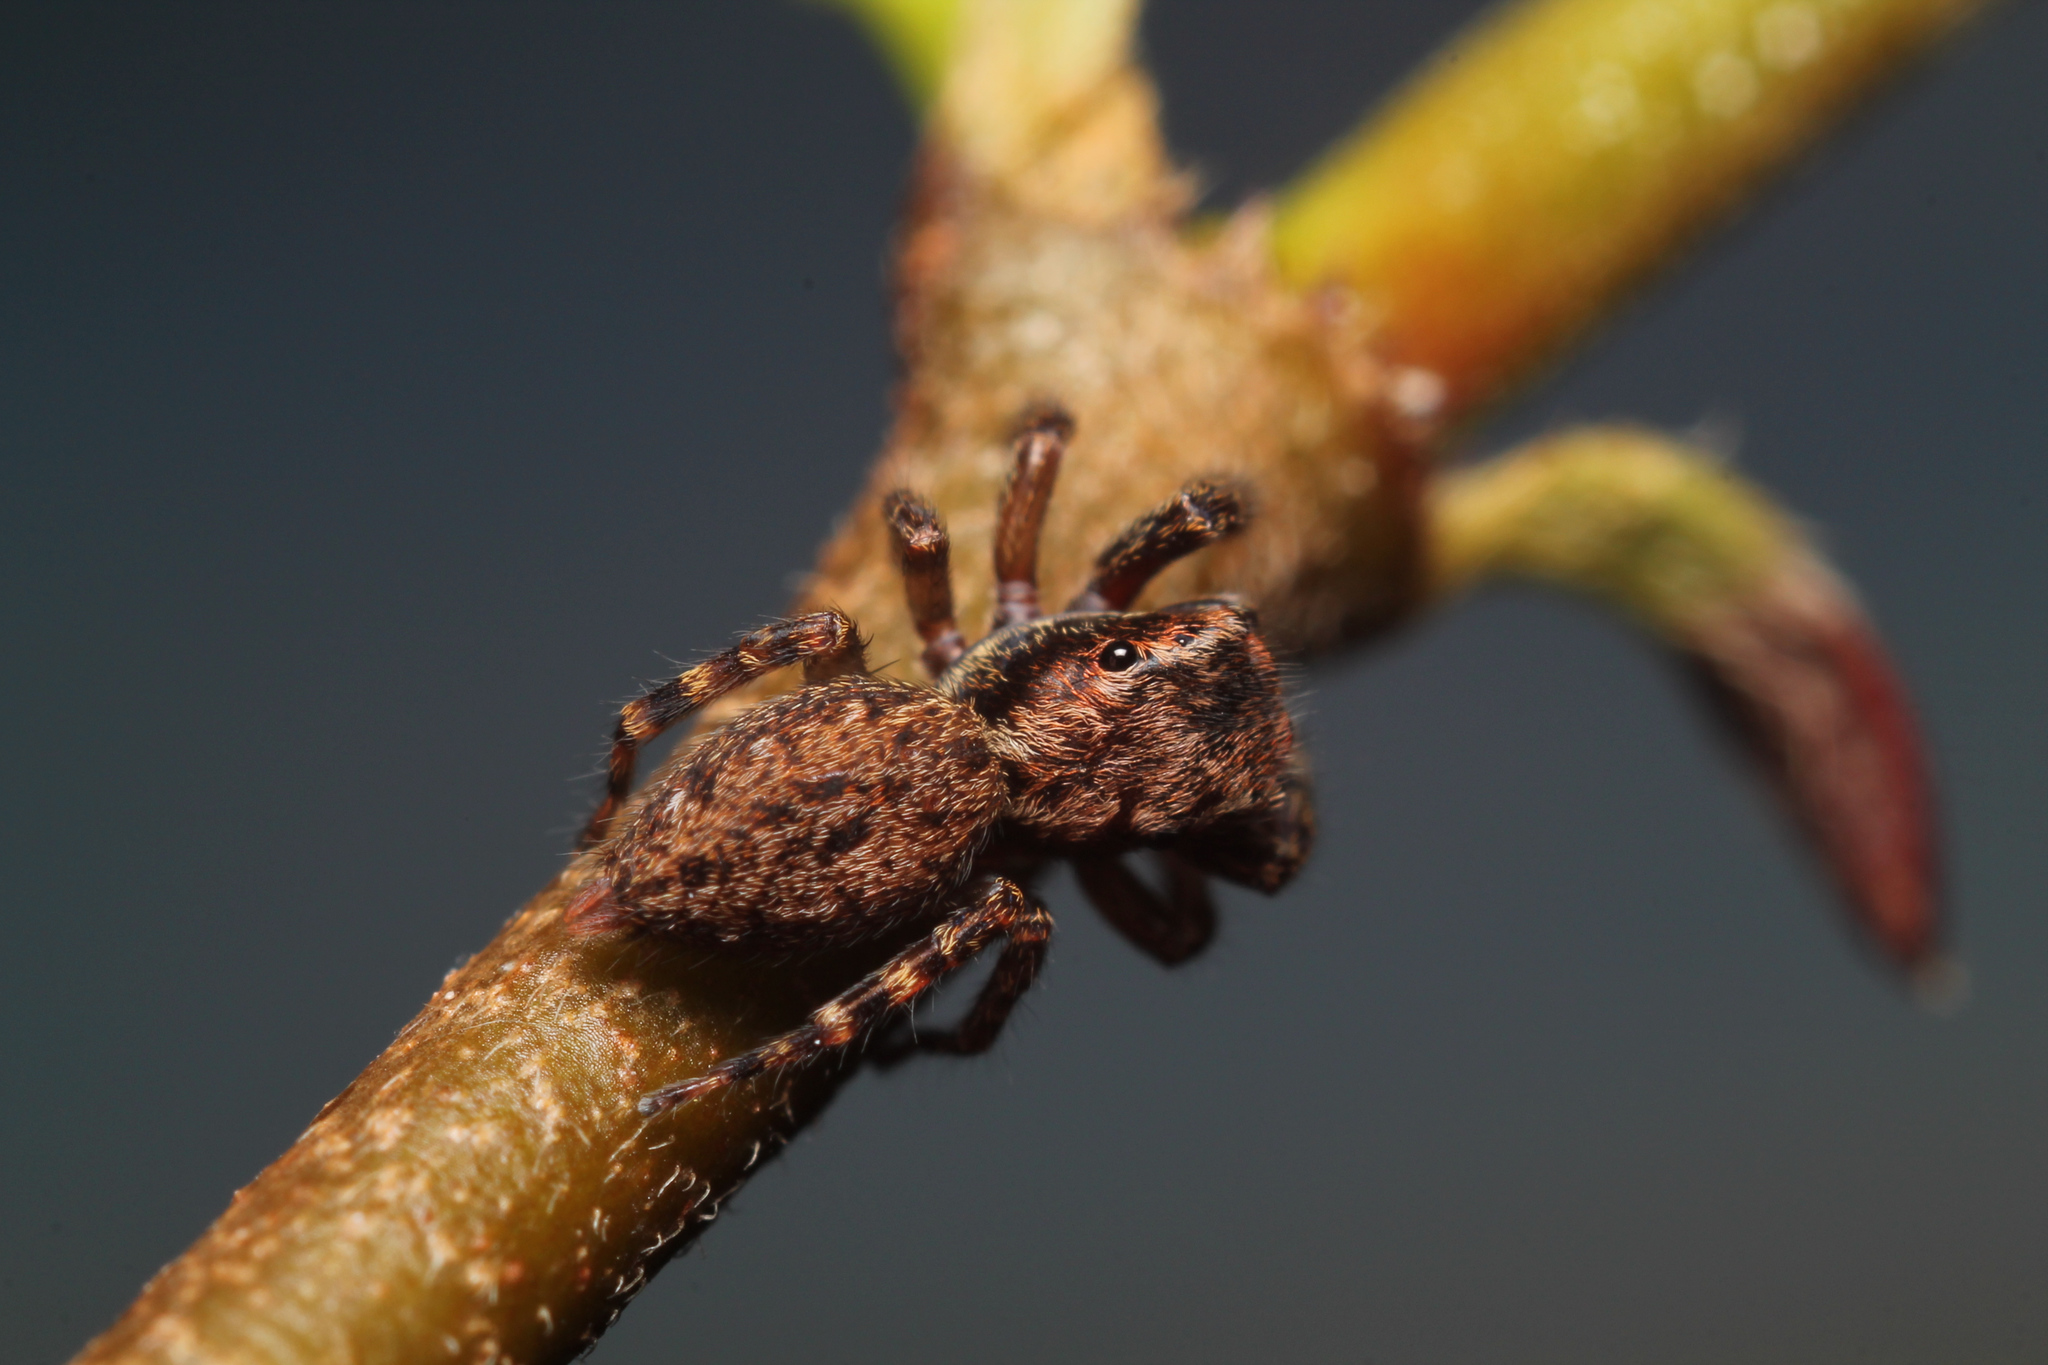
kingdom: Animalia
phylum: Arthropoda
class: Arachnida
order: Araneae
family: Salticidae
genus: Trite
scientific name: Trite auricoma
